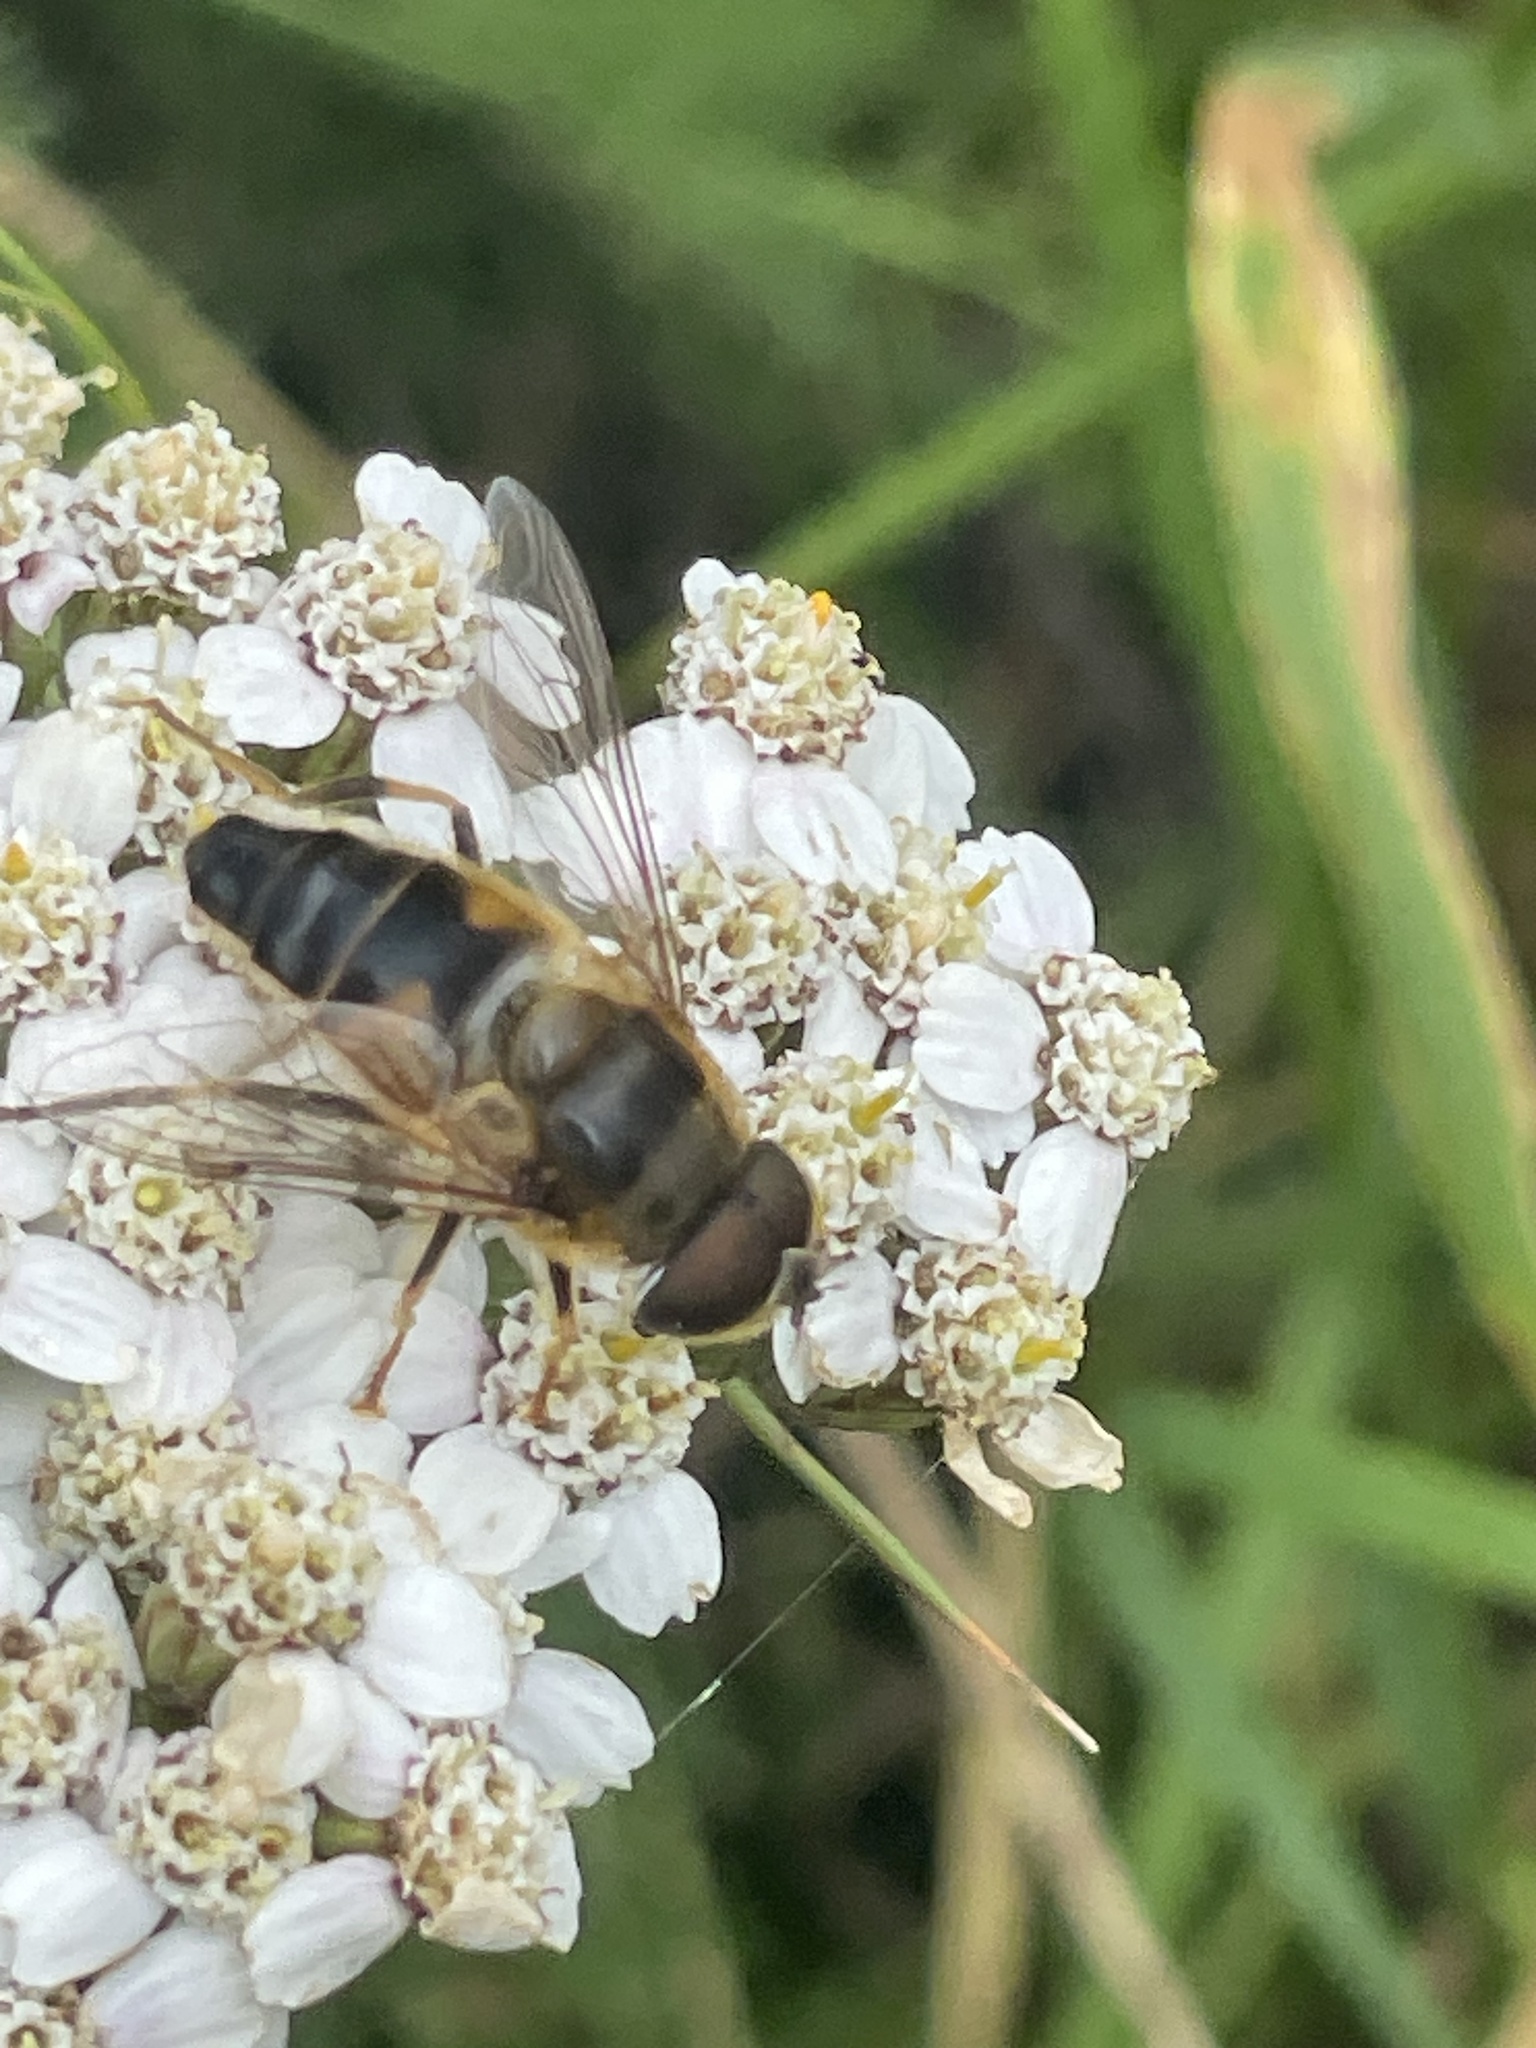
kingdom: Animalia
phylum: Arthropoda
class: Insecta
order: Diptera
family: Syrphidae
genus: Eristalis
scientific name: Eristalis pertinax
